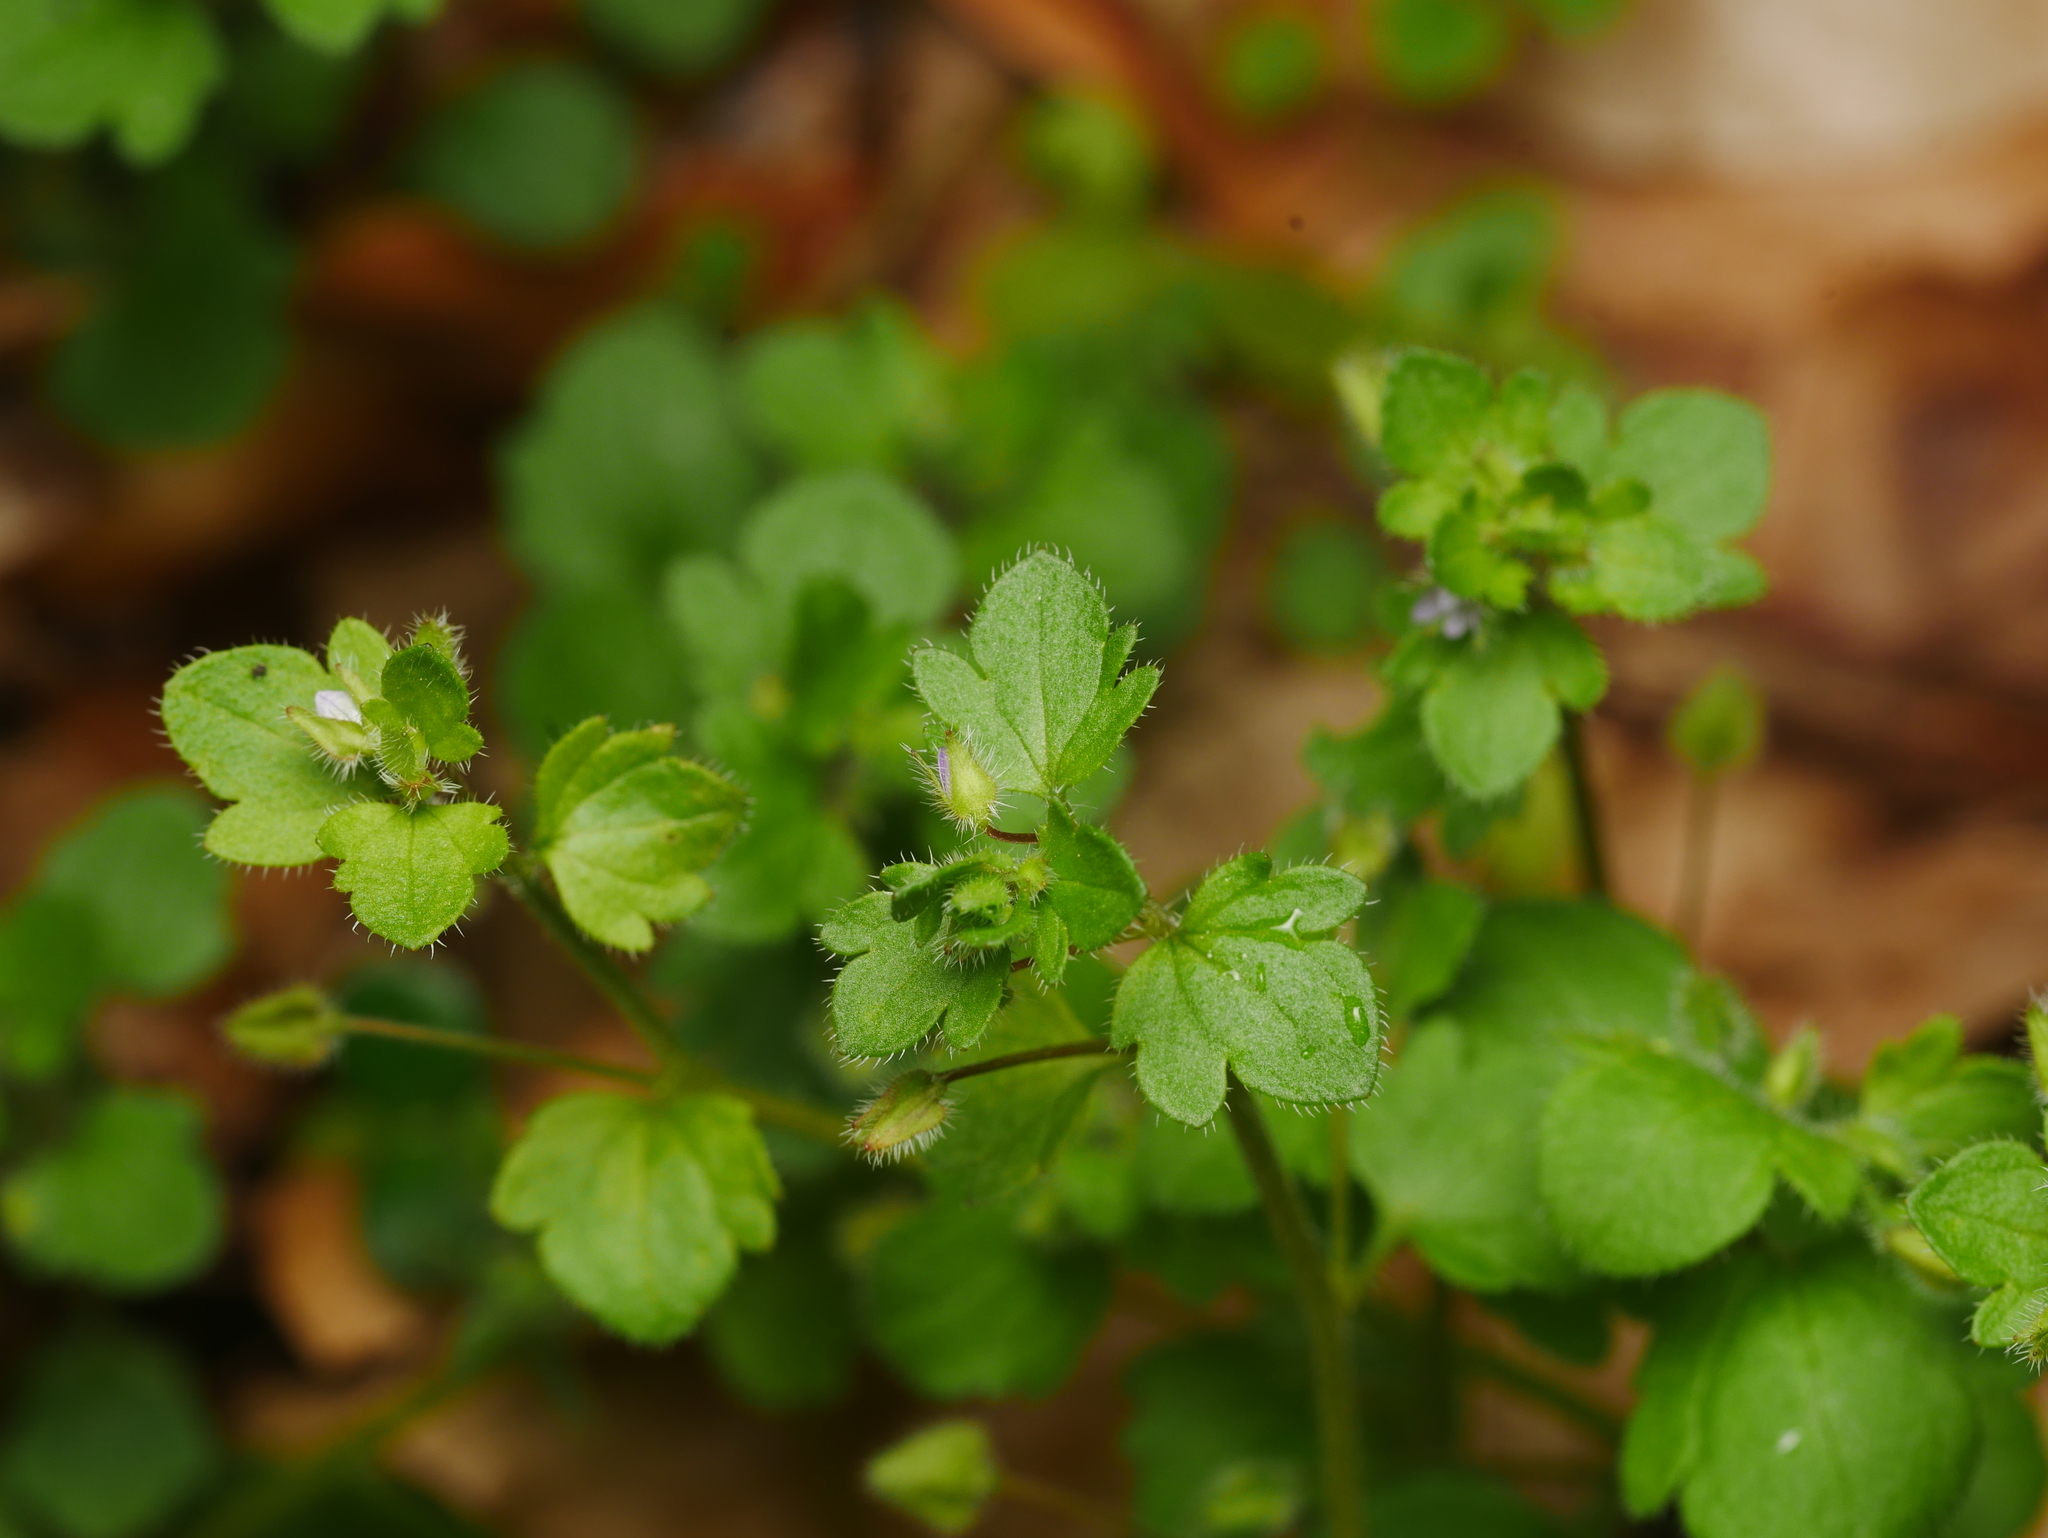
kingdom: Plantae
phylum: Tracheophyta
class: Magnoliopsida
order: Lamiales
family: Plantaginaceae
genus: Veronica
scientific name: Veronica sublobata
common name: False ivy-leaved speedwell
